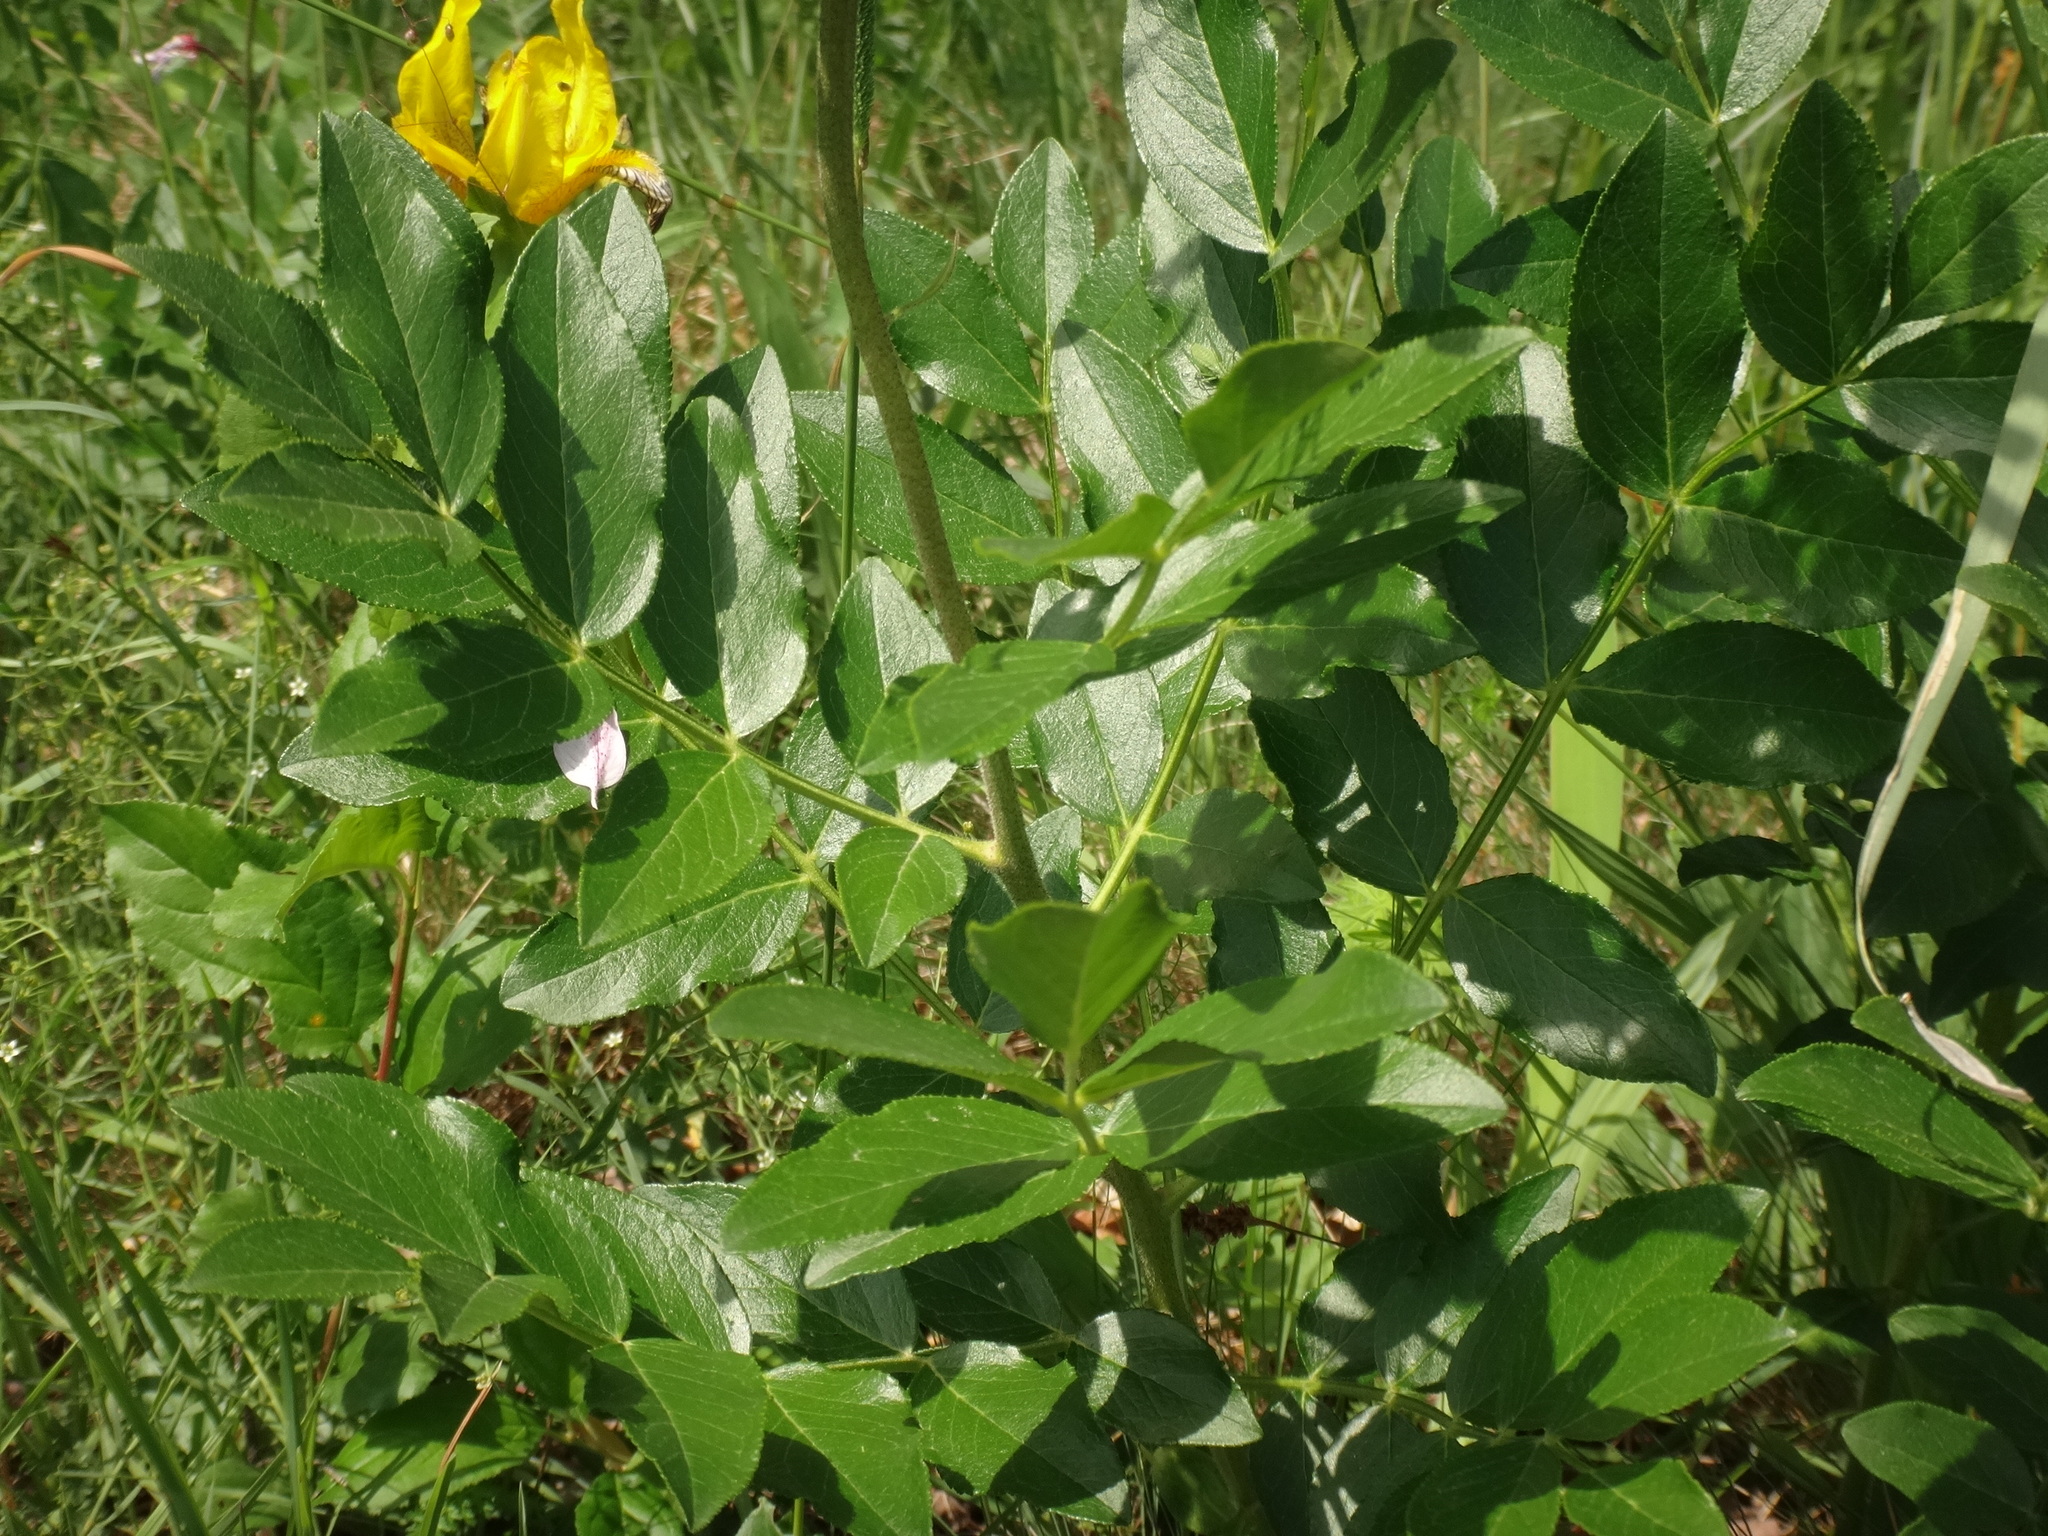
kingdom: Plantae
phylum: Tracheophyta
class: Magnoliopsida
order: Sapindales
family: Rutaceae
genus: Dictamnus
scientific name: Dictamnus albus
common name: Gasplant
